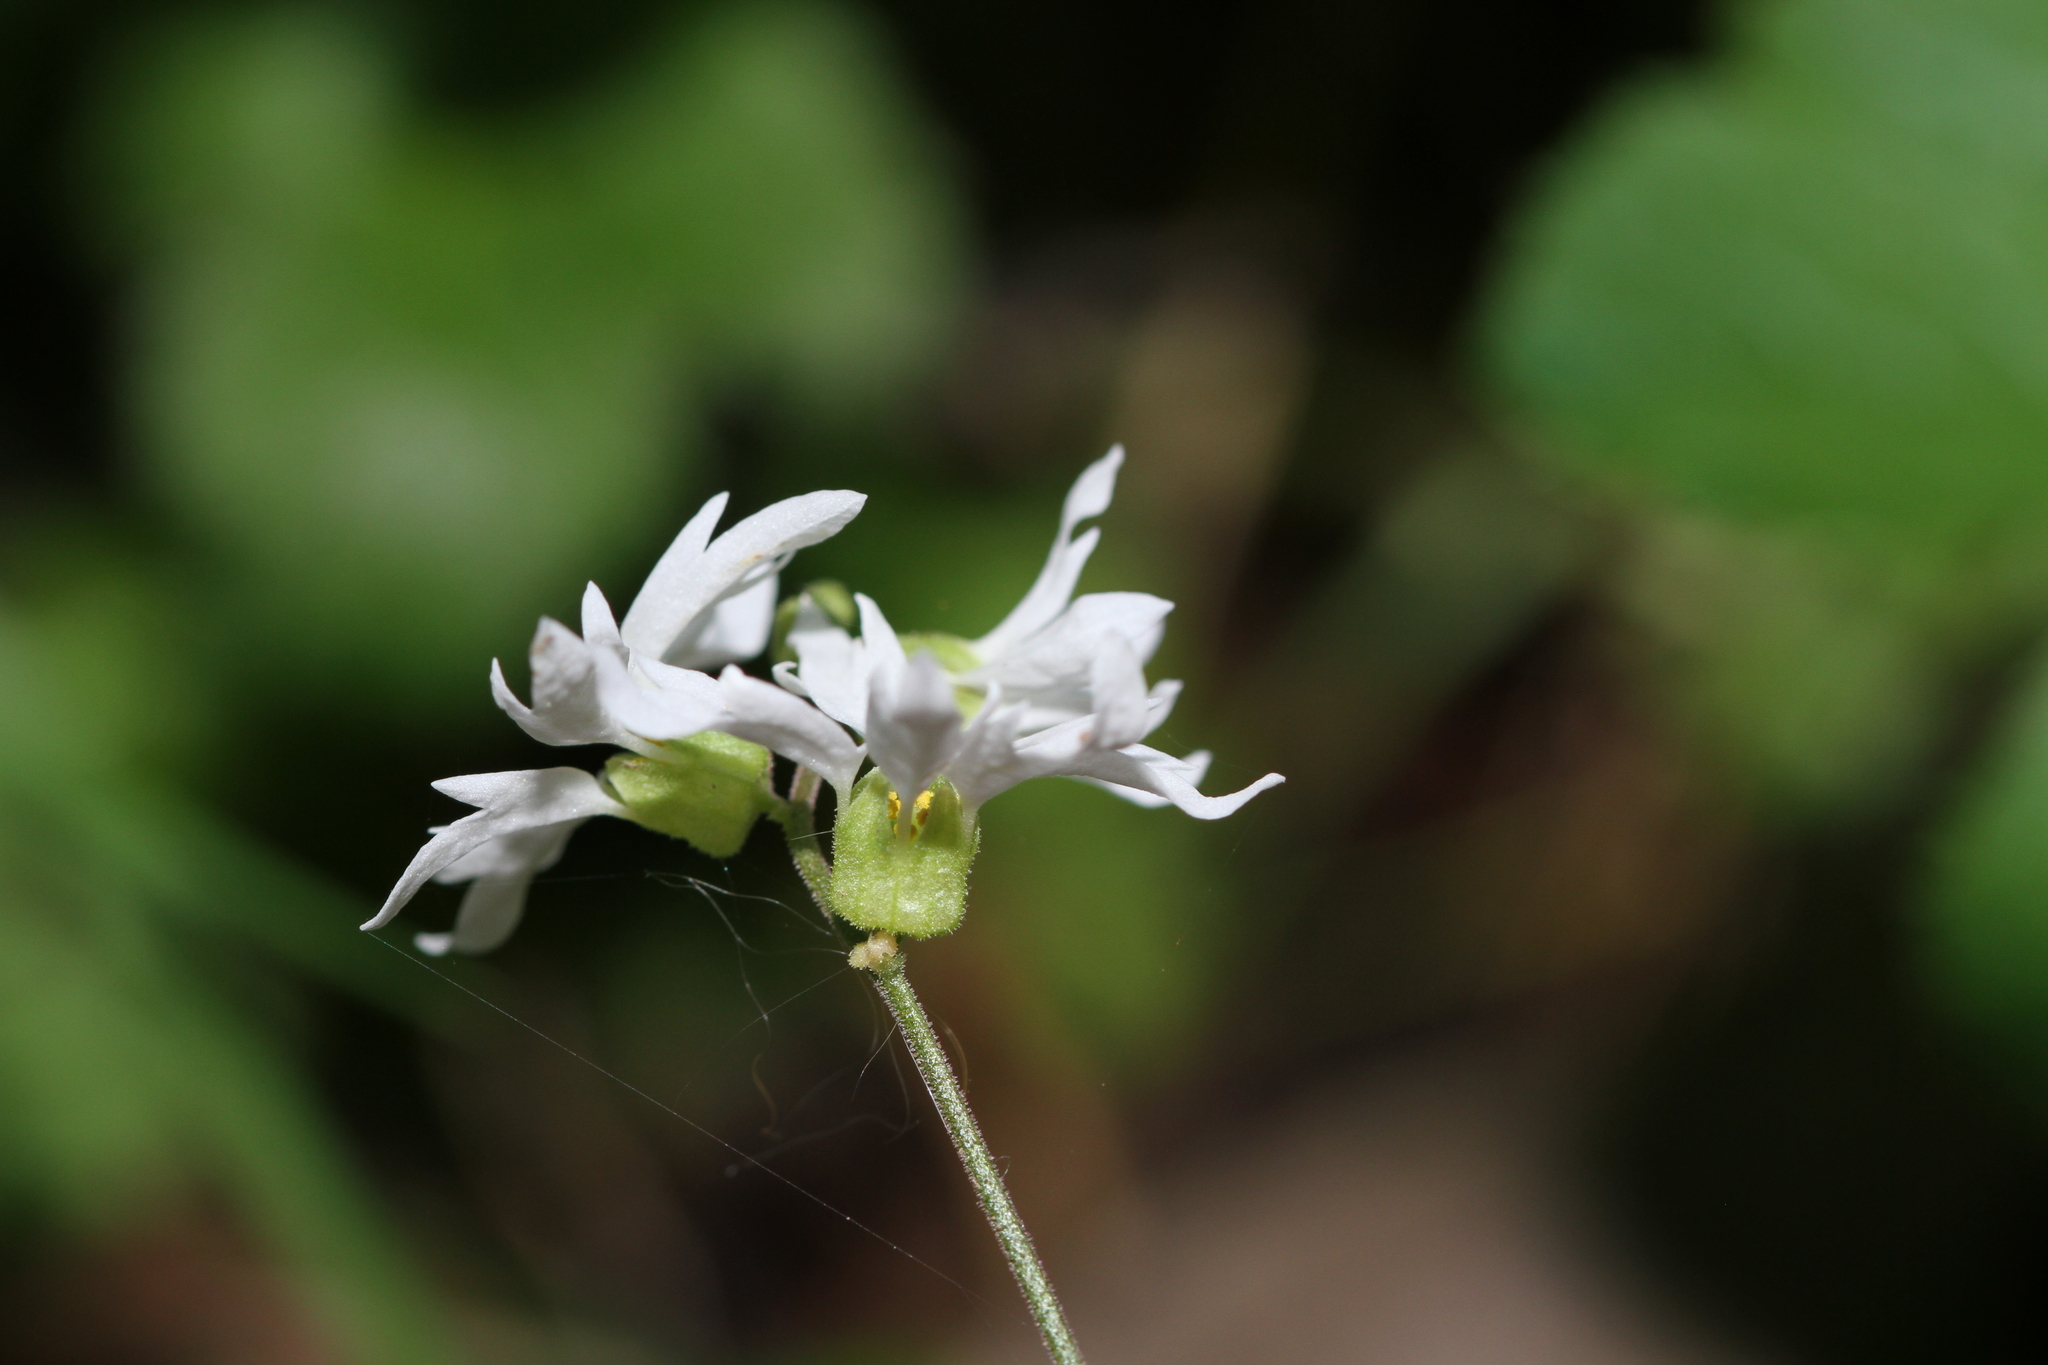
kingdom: Plantae
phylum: Tracheophyta
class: Magnoliopsida
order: Saxifragales
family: Saxifragaceae
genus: Lithophragma
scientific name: Lithophragma heterophyllum
